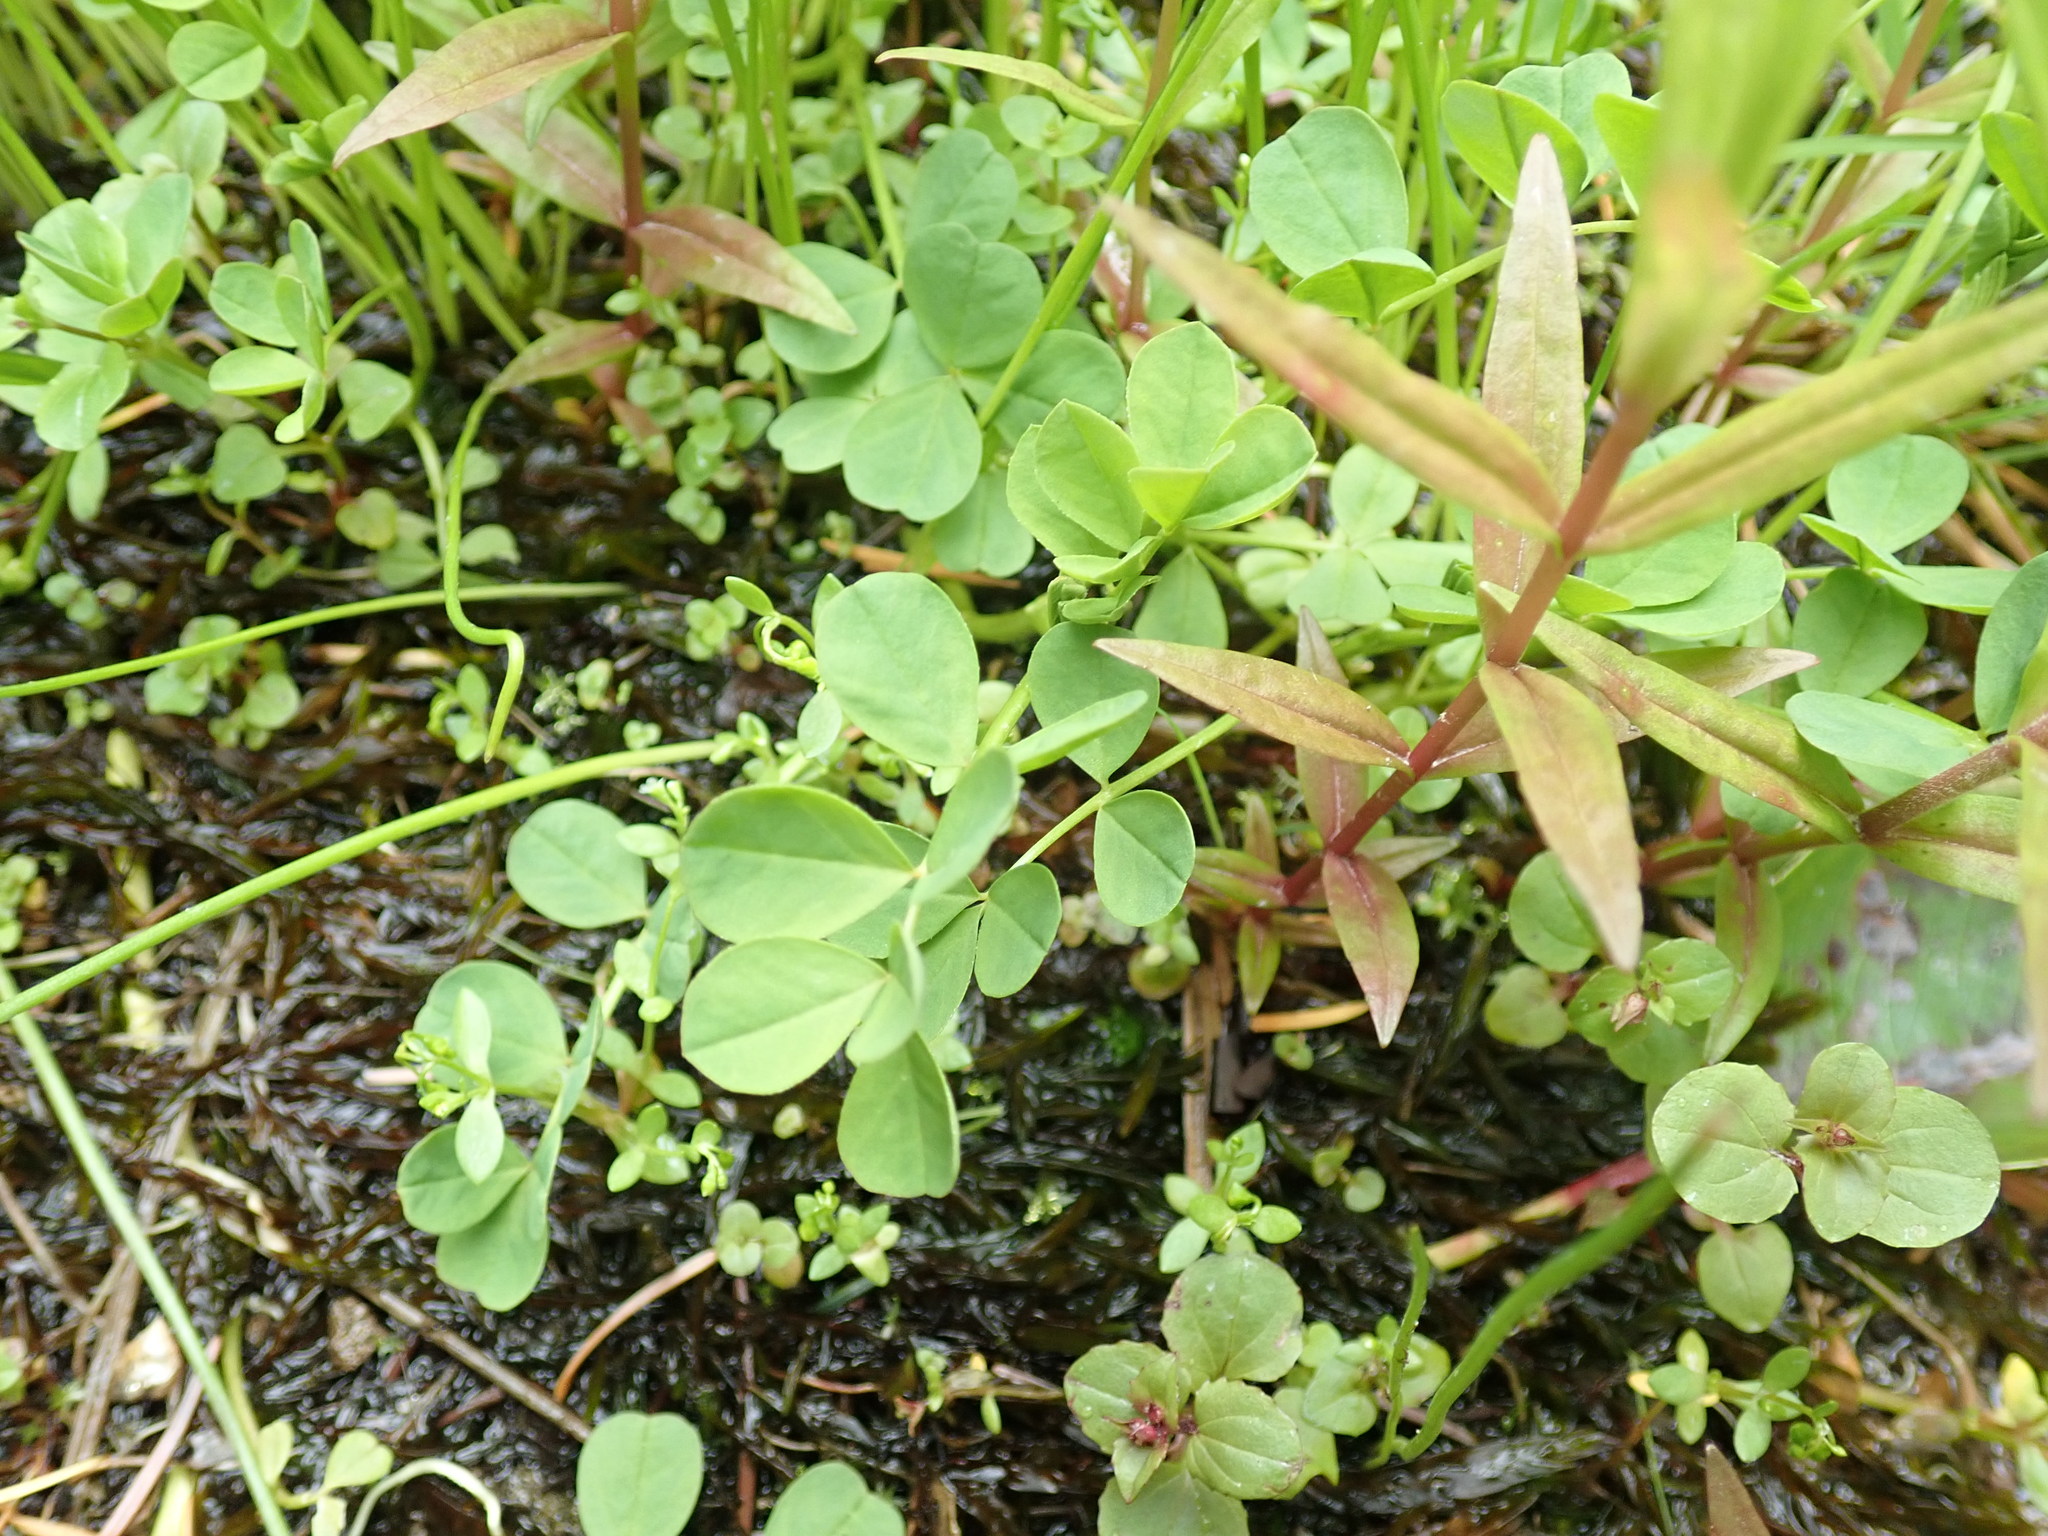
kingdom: Plantae
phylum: Tracheophyta
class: Magnoliopsida
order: Fabales
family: Fabaceae
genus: Hosackia
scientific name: Hosackia pinnata
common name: Bog bird's-foot trefoil
